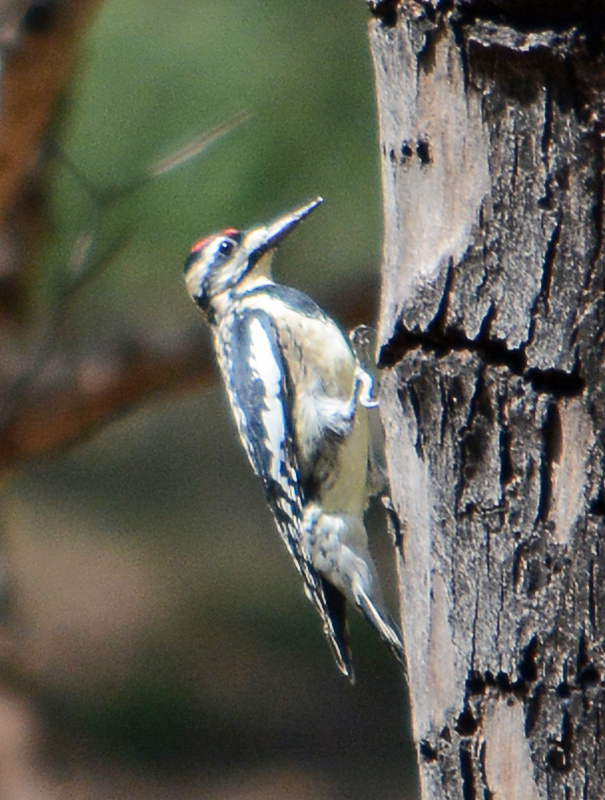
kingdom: Animalia
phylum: Chordata
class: Aves
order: Piciformes
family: Picidae
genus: Sphyrapicus
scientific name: Sphyrapicus varius
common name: Yellow-bellied sapsucker
